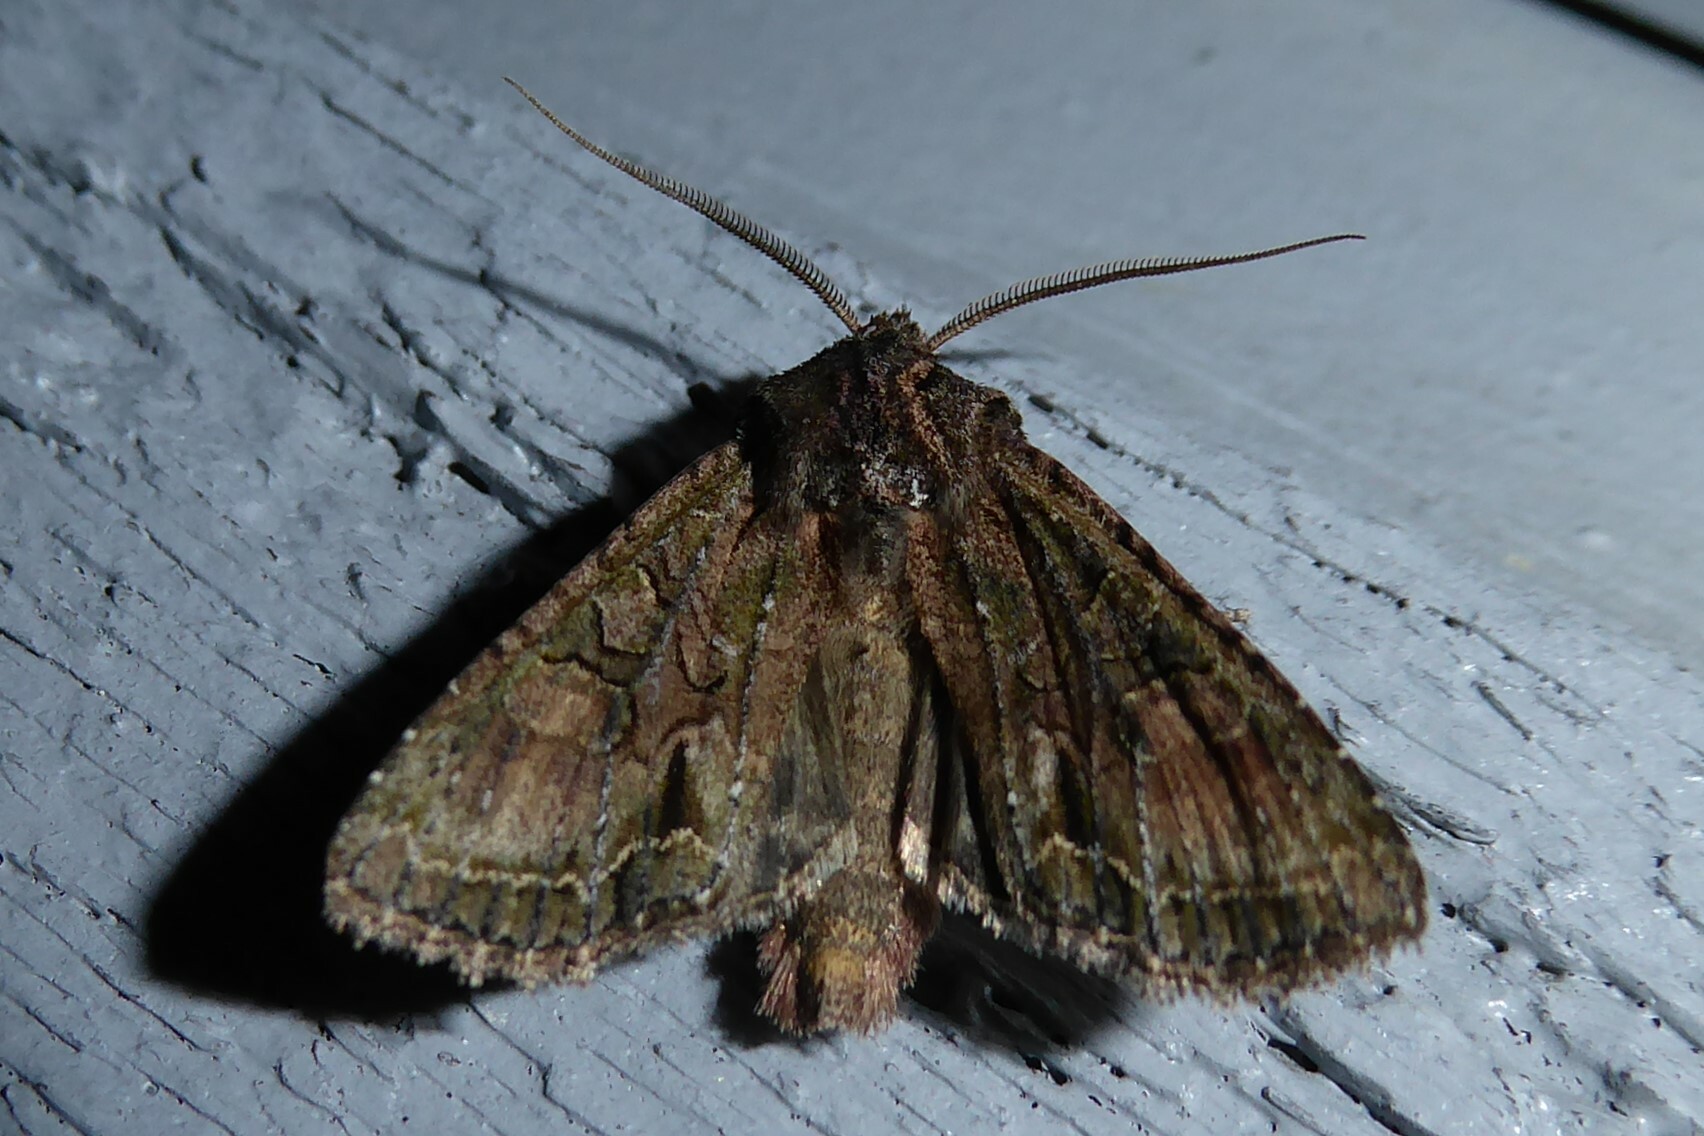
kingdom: Animalia
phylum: Arthropoda
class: Insecta
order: Lepidoptera
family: Noctuidae
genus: Ichneutica
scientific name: Ichneutica mutans
